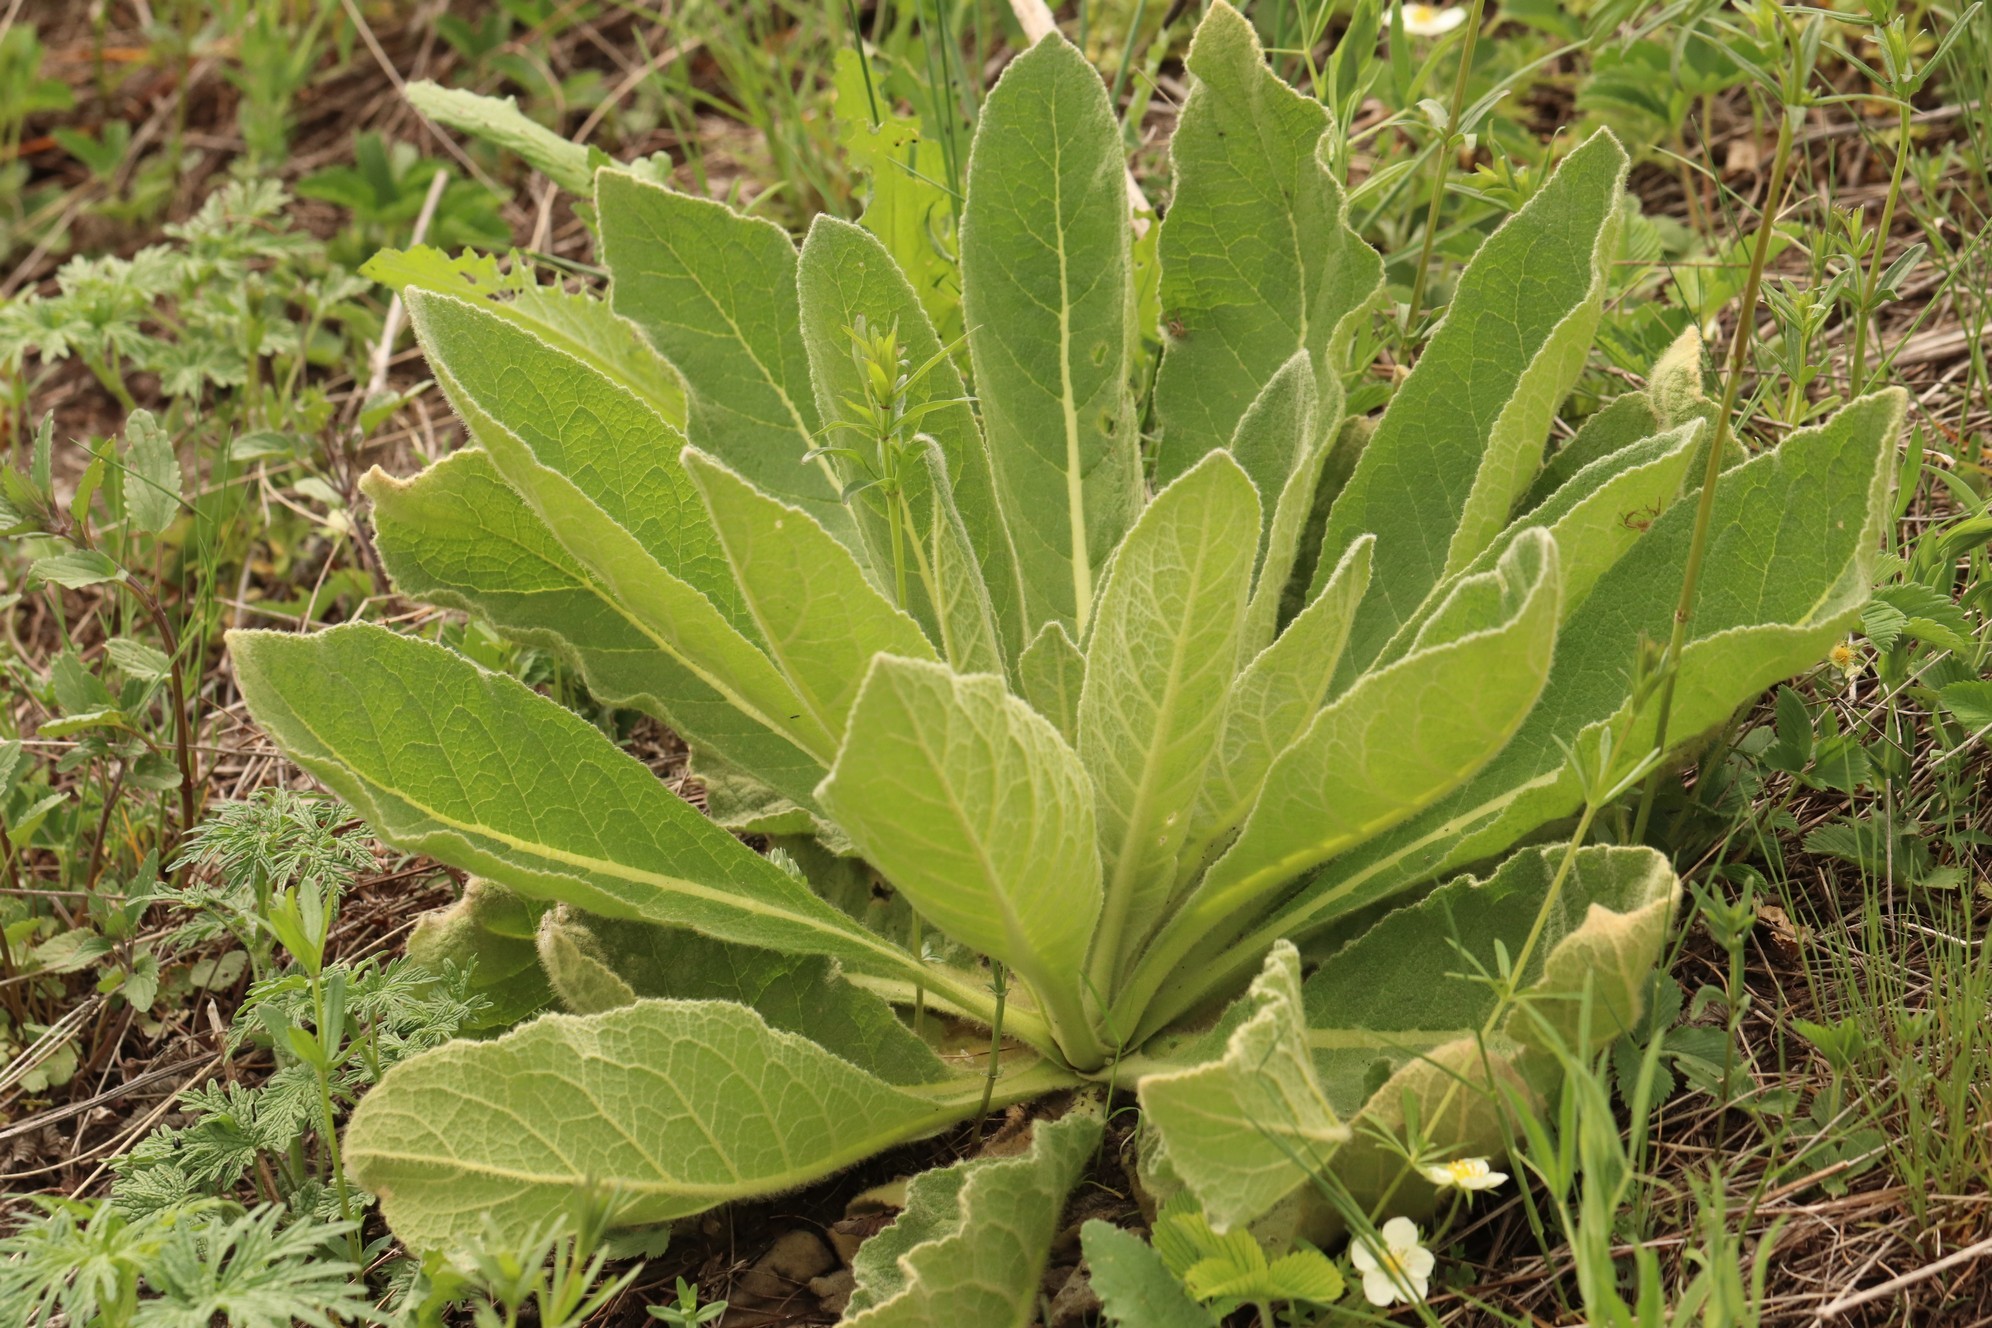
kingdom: Plantae
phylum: Tracheophyta
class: Magnoliopsida
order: Lamiales
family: Scrophulariaceae
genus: Verbascum
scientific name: Verbascum thapsus
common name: Common mullein
